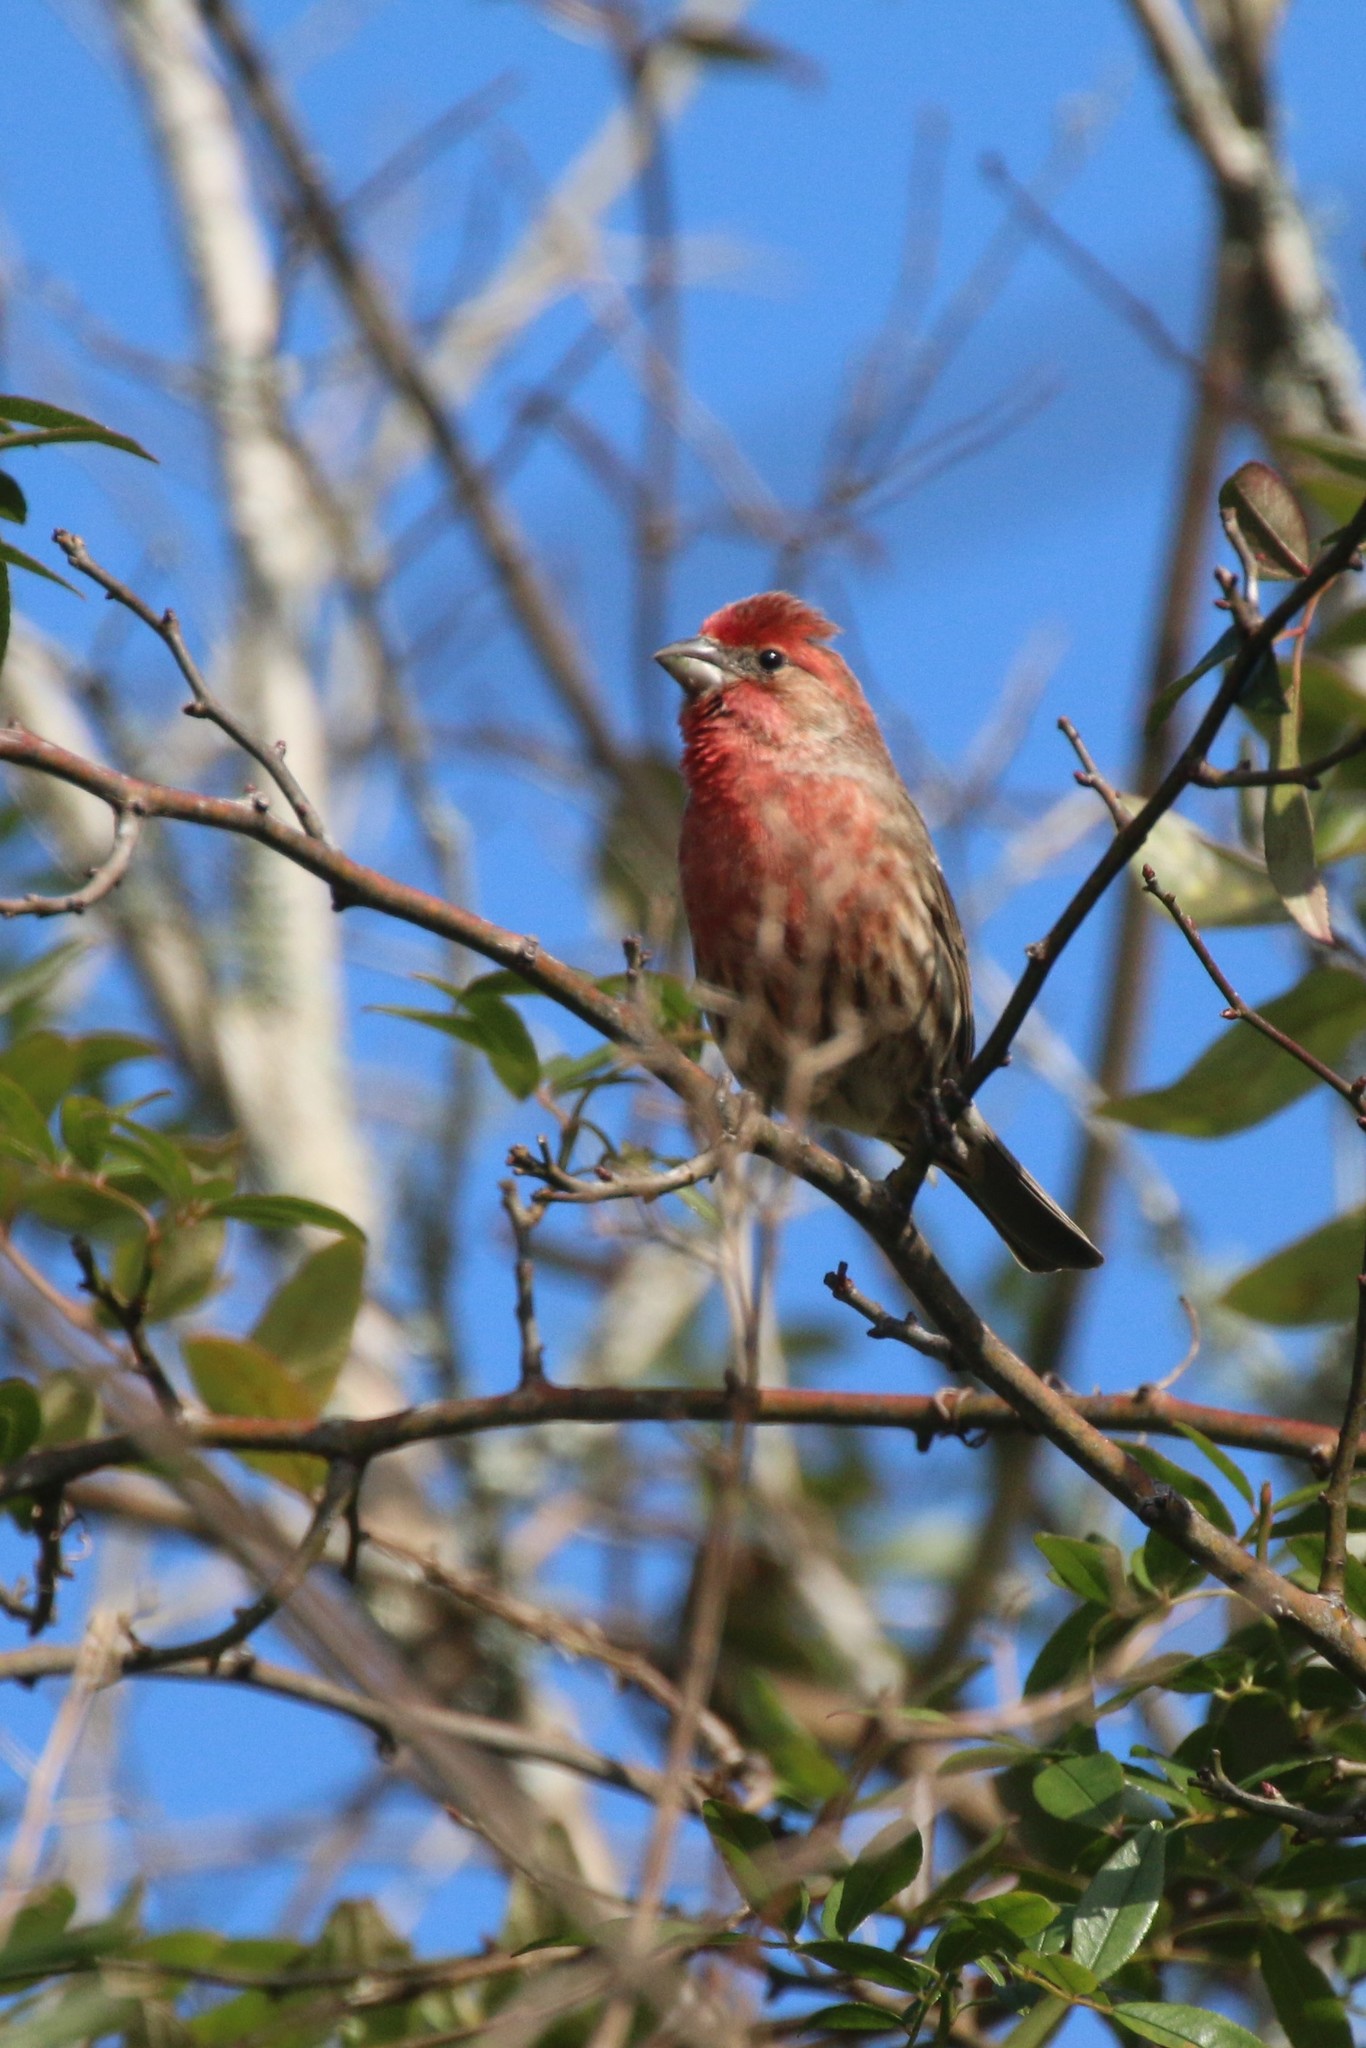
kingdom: Animalia
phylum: Chordata
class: Aves
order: Passeriformes
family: Fringillidae
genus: Haemorhous
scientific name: Haemorhous mexicanus
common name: House finch
